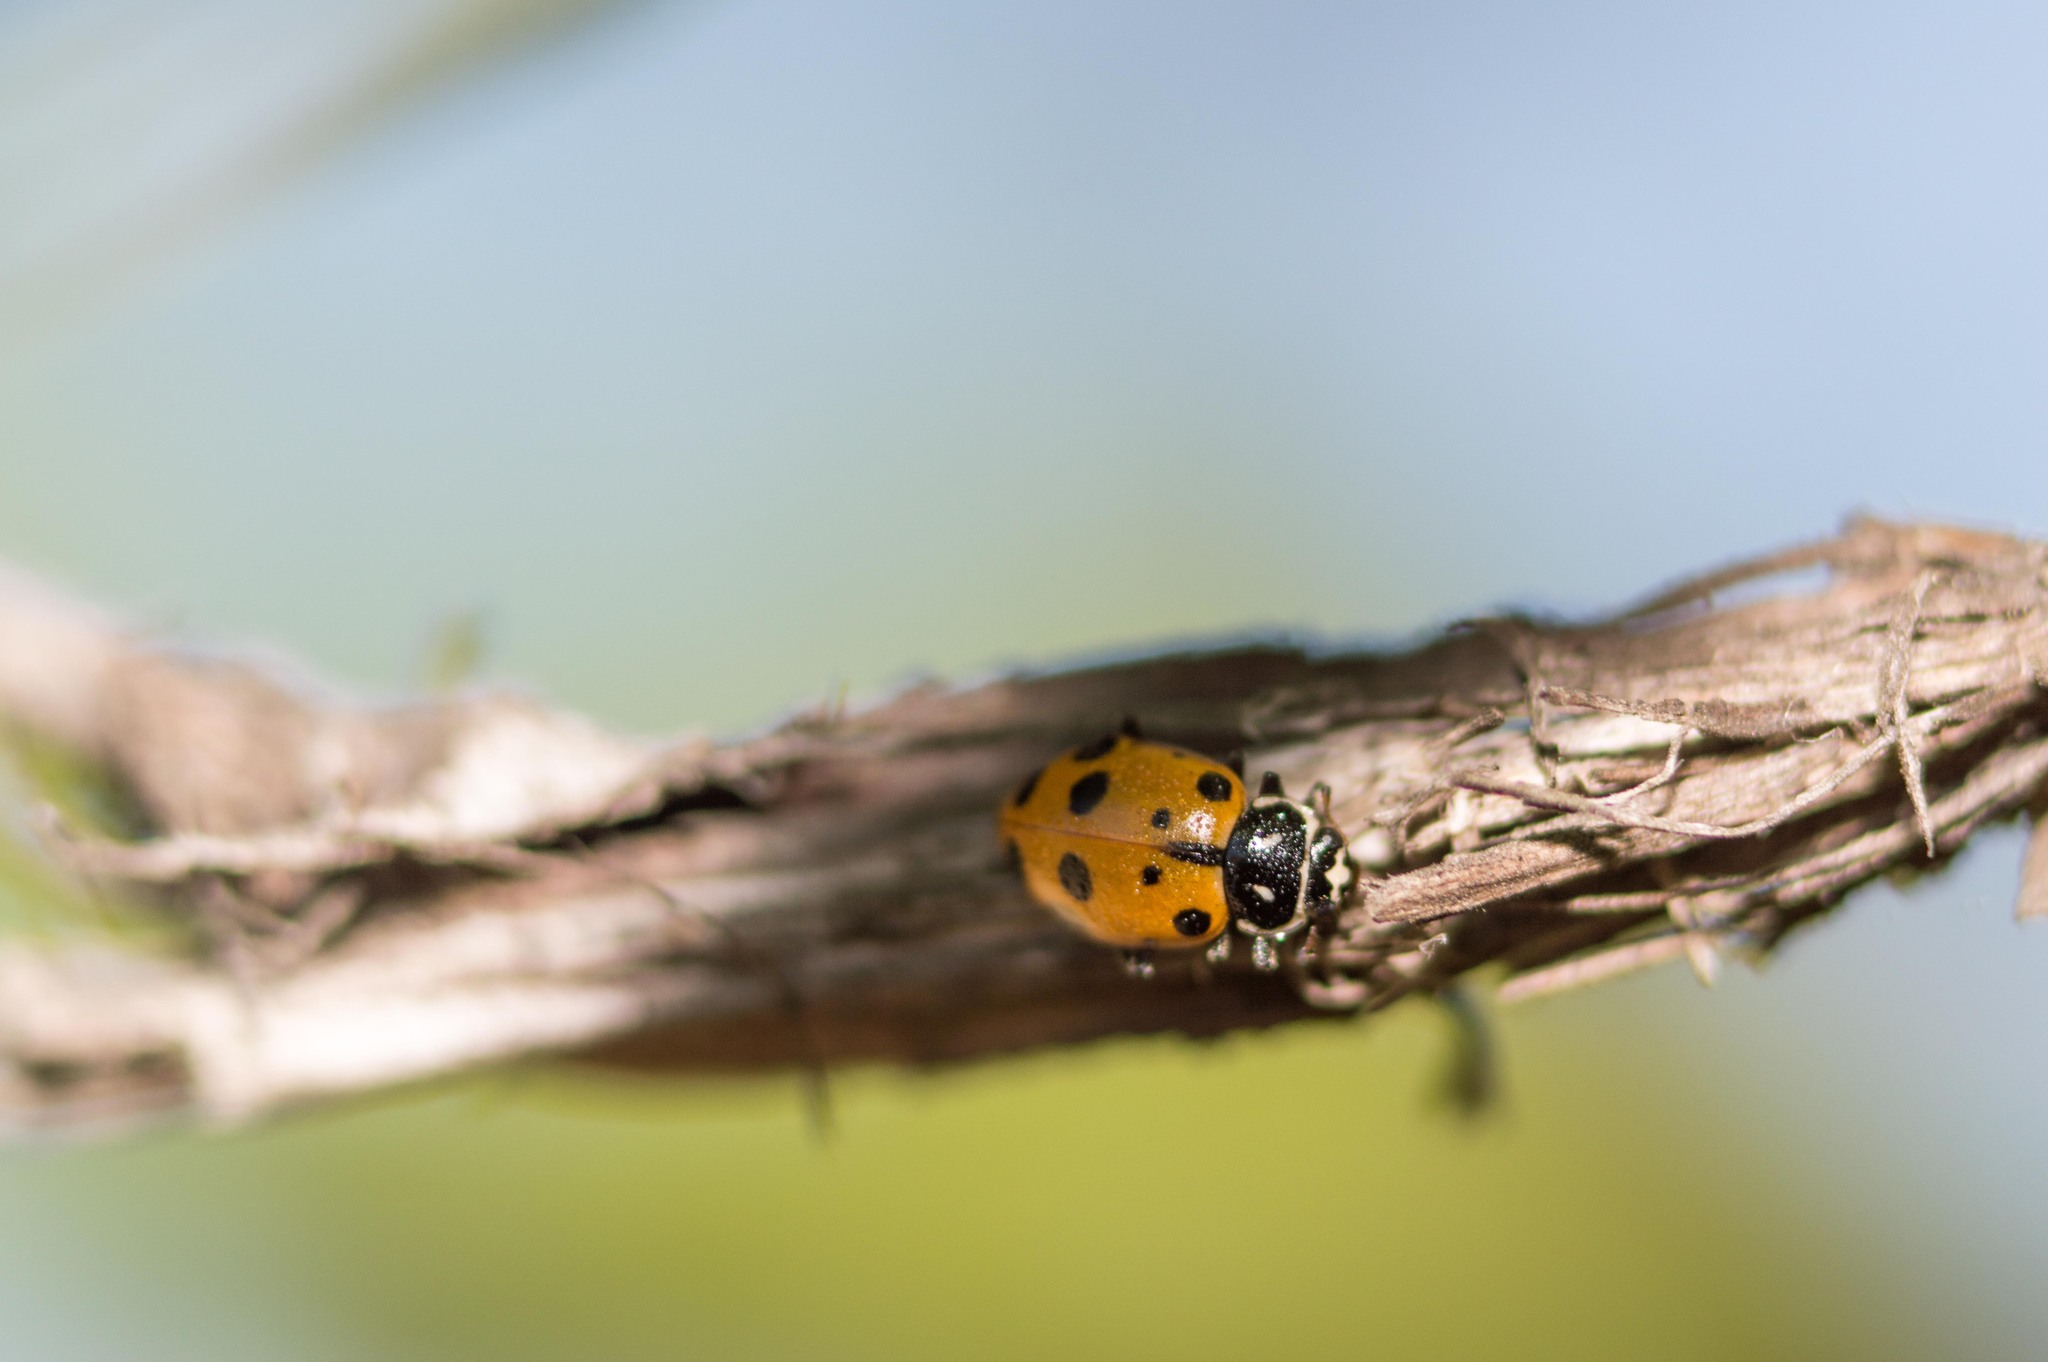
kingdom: Animalia
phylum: Arthropoda
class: Insecta
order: Coleoptera
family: Coccinellidae
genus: Hippodamia
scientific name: Hippodamia convergens
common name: Convergent lady beetle
